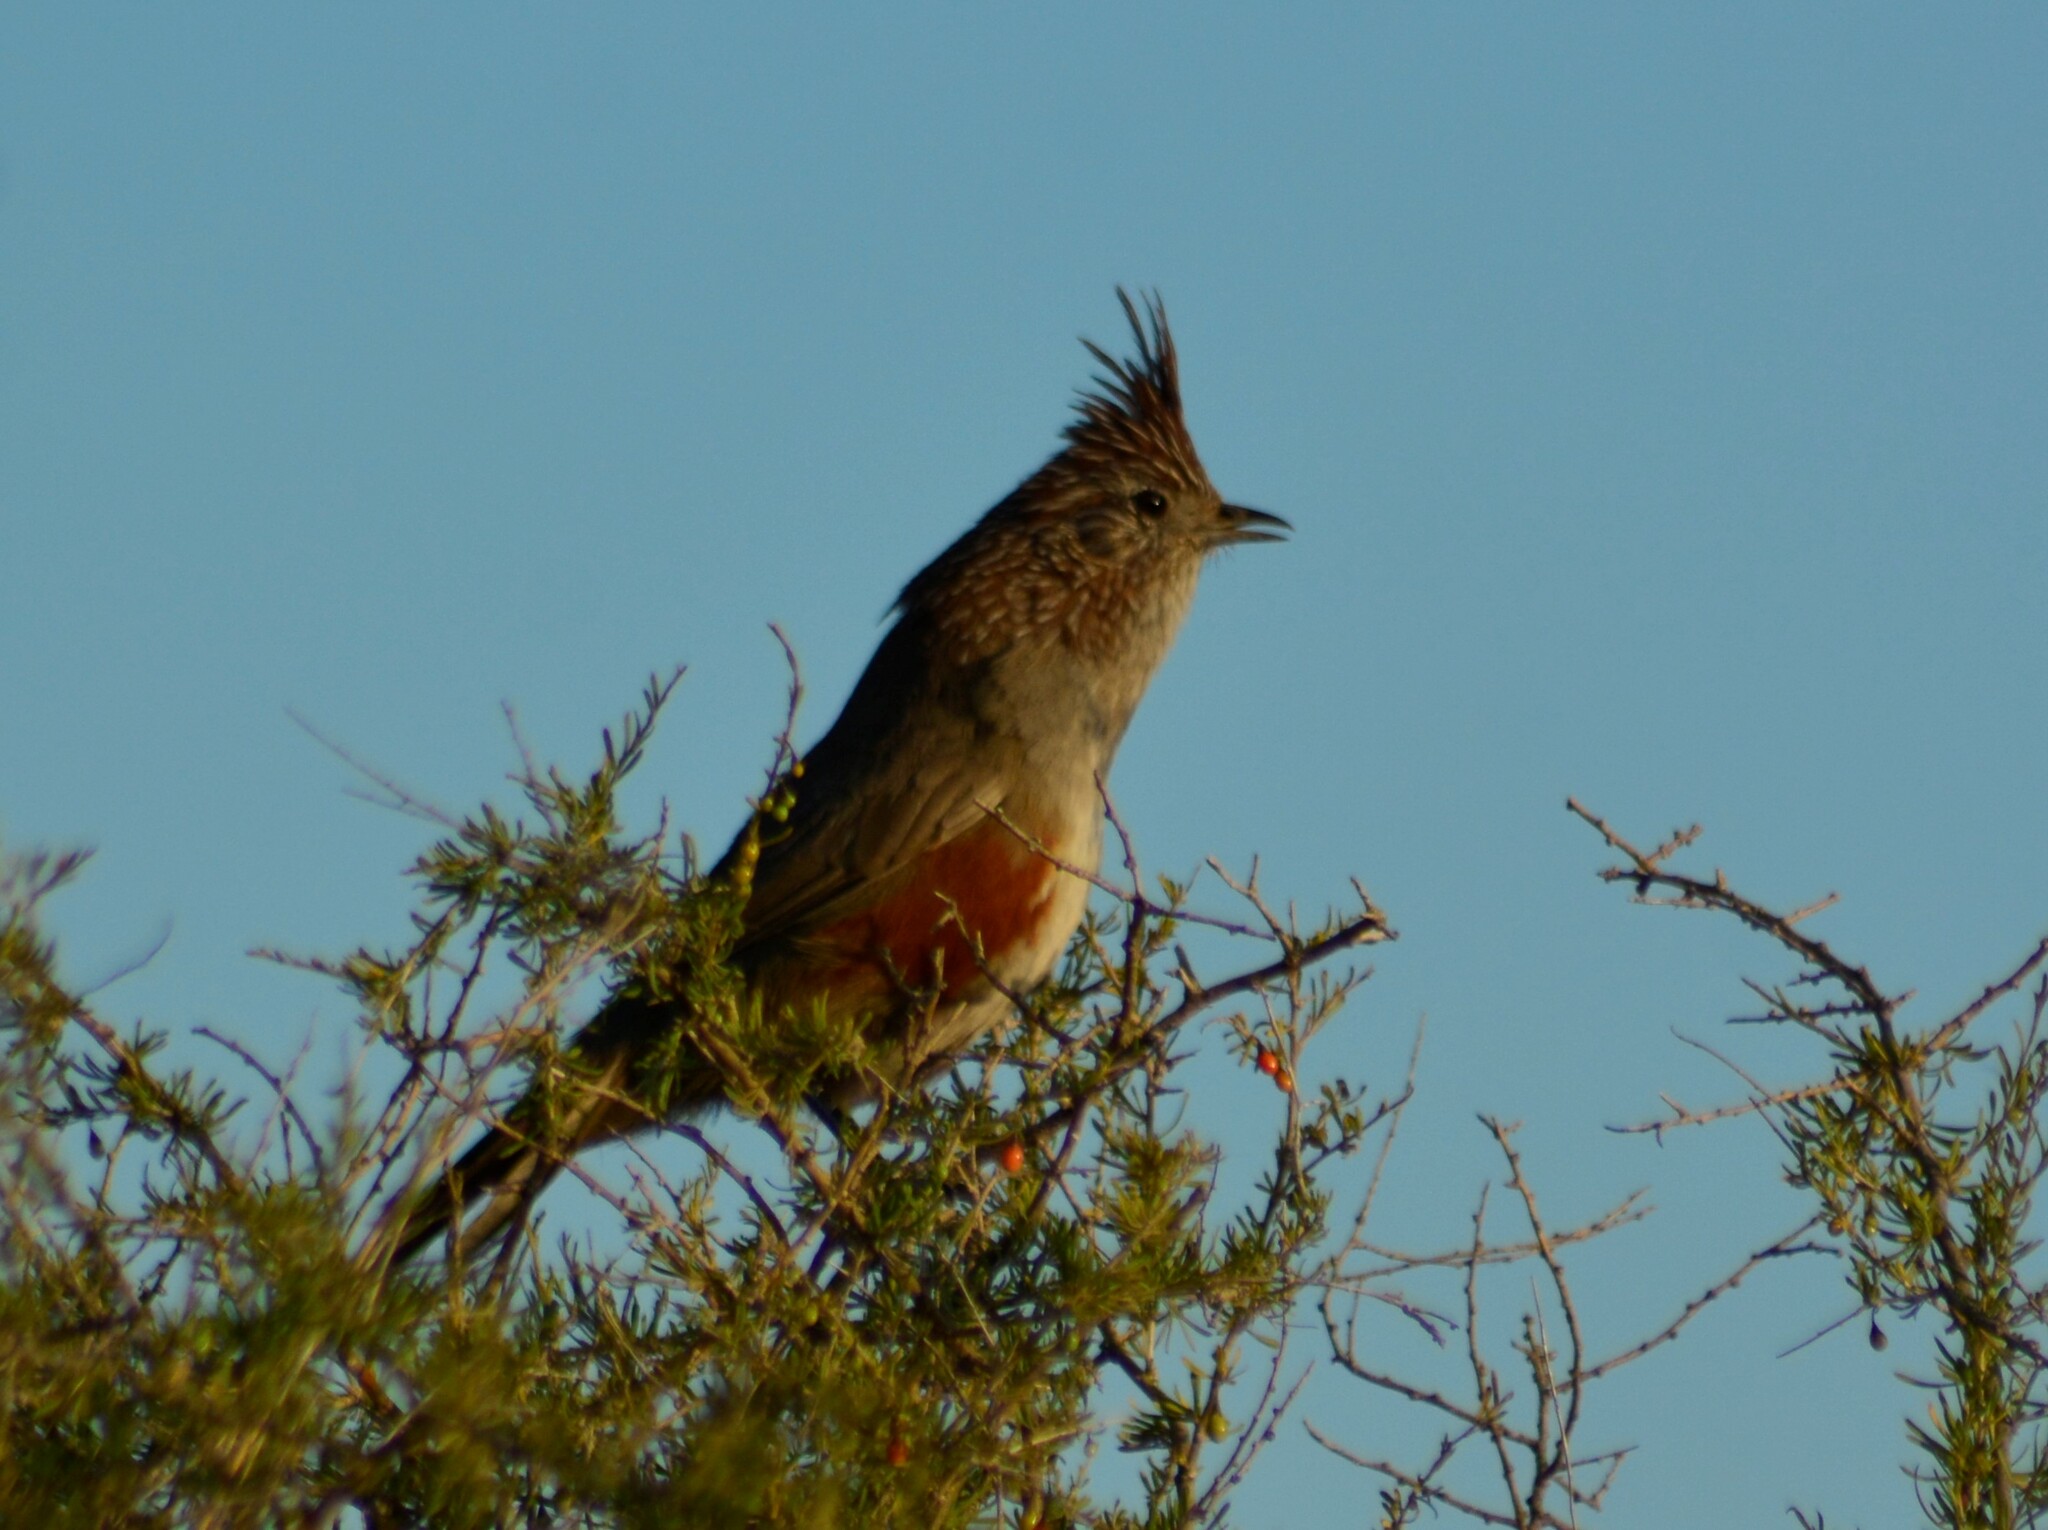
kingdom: Animalia
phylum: Chordata
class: Aves
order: Passeriformes
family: Rhinocryptidae
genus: Rhinocrypta
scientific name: Rhinocrypta lanceolata
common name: Crested gallito
